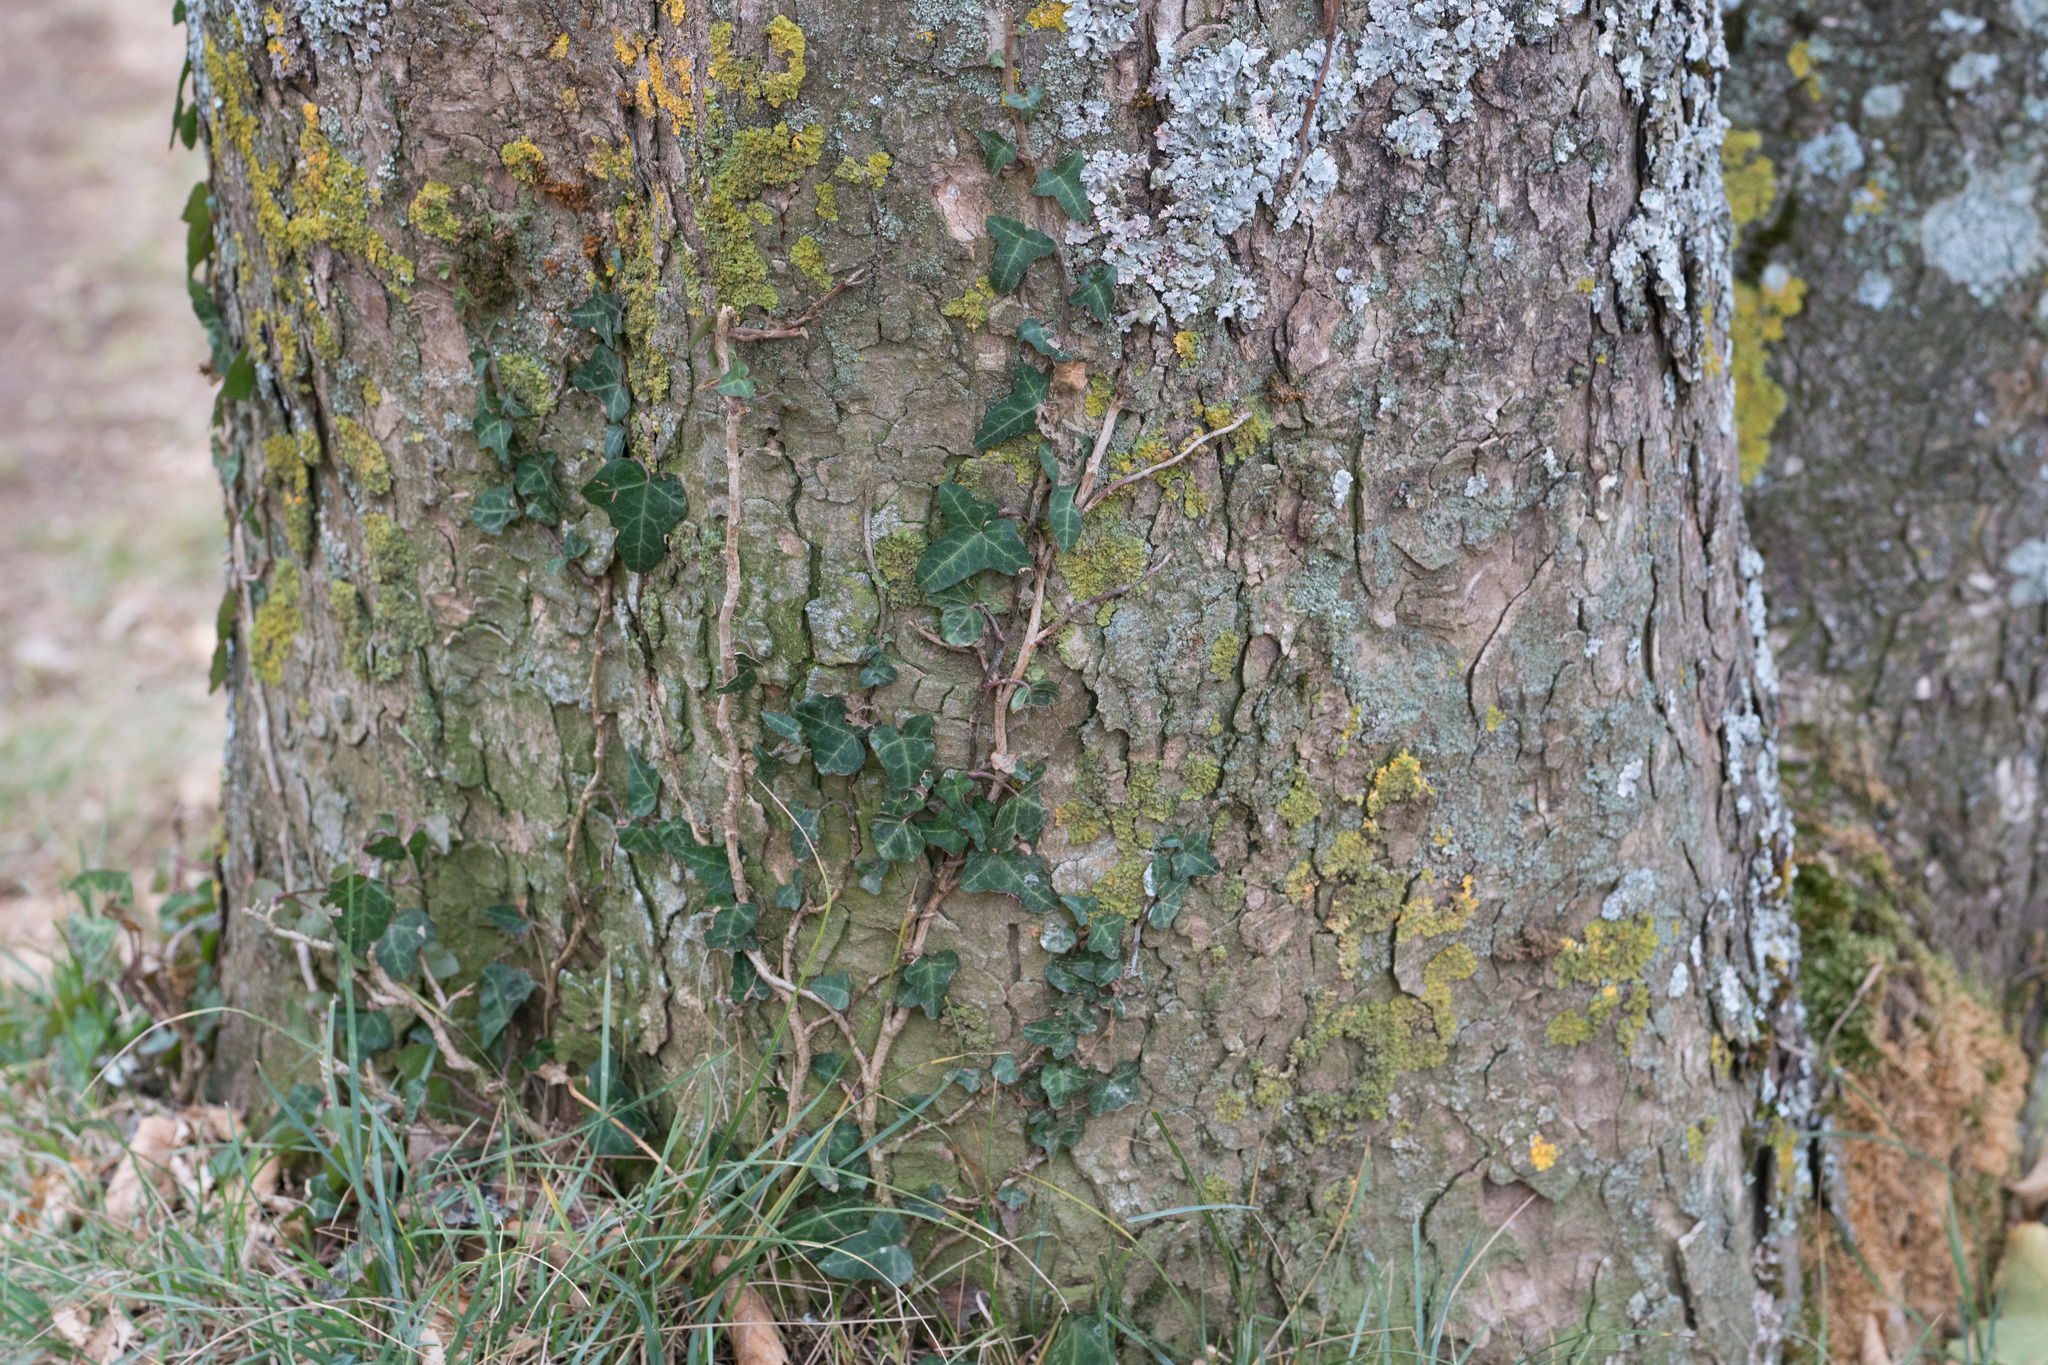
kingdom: Plantae
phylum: Tracheophyta
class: Magnoliopsida
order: Apiales
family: Araliaceae
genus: Hedera
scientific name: Hedera helix
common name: Ivy
